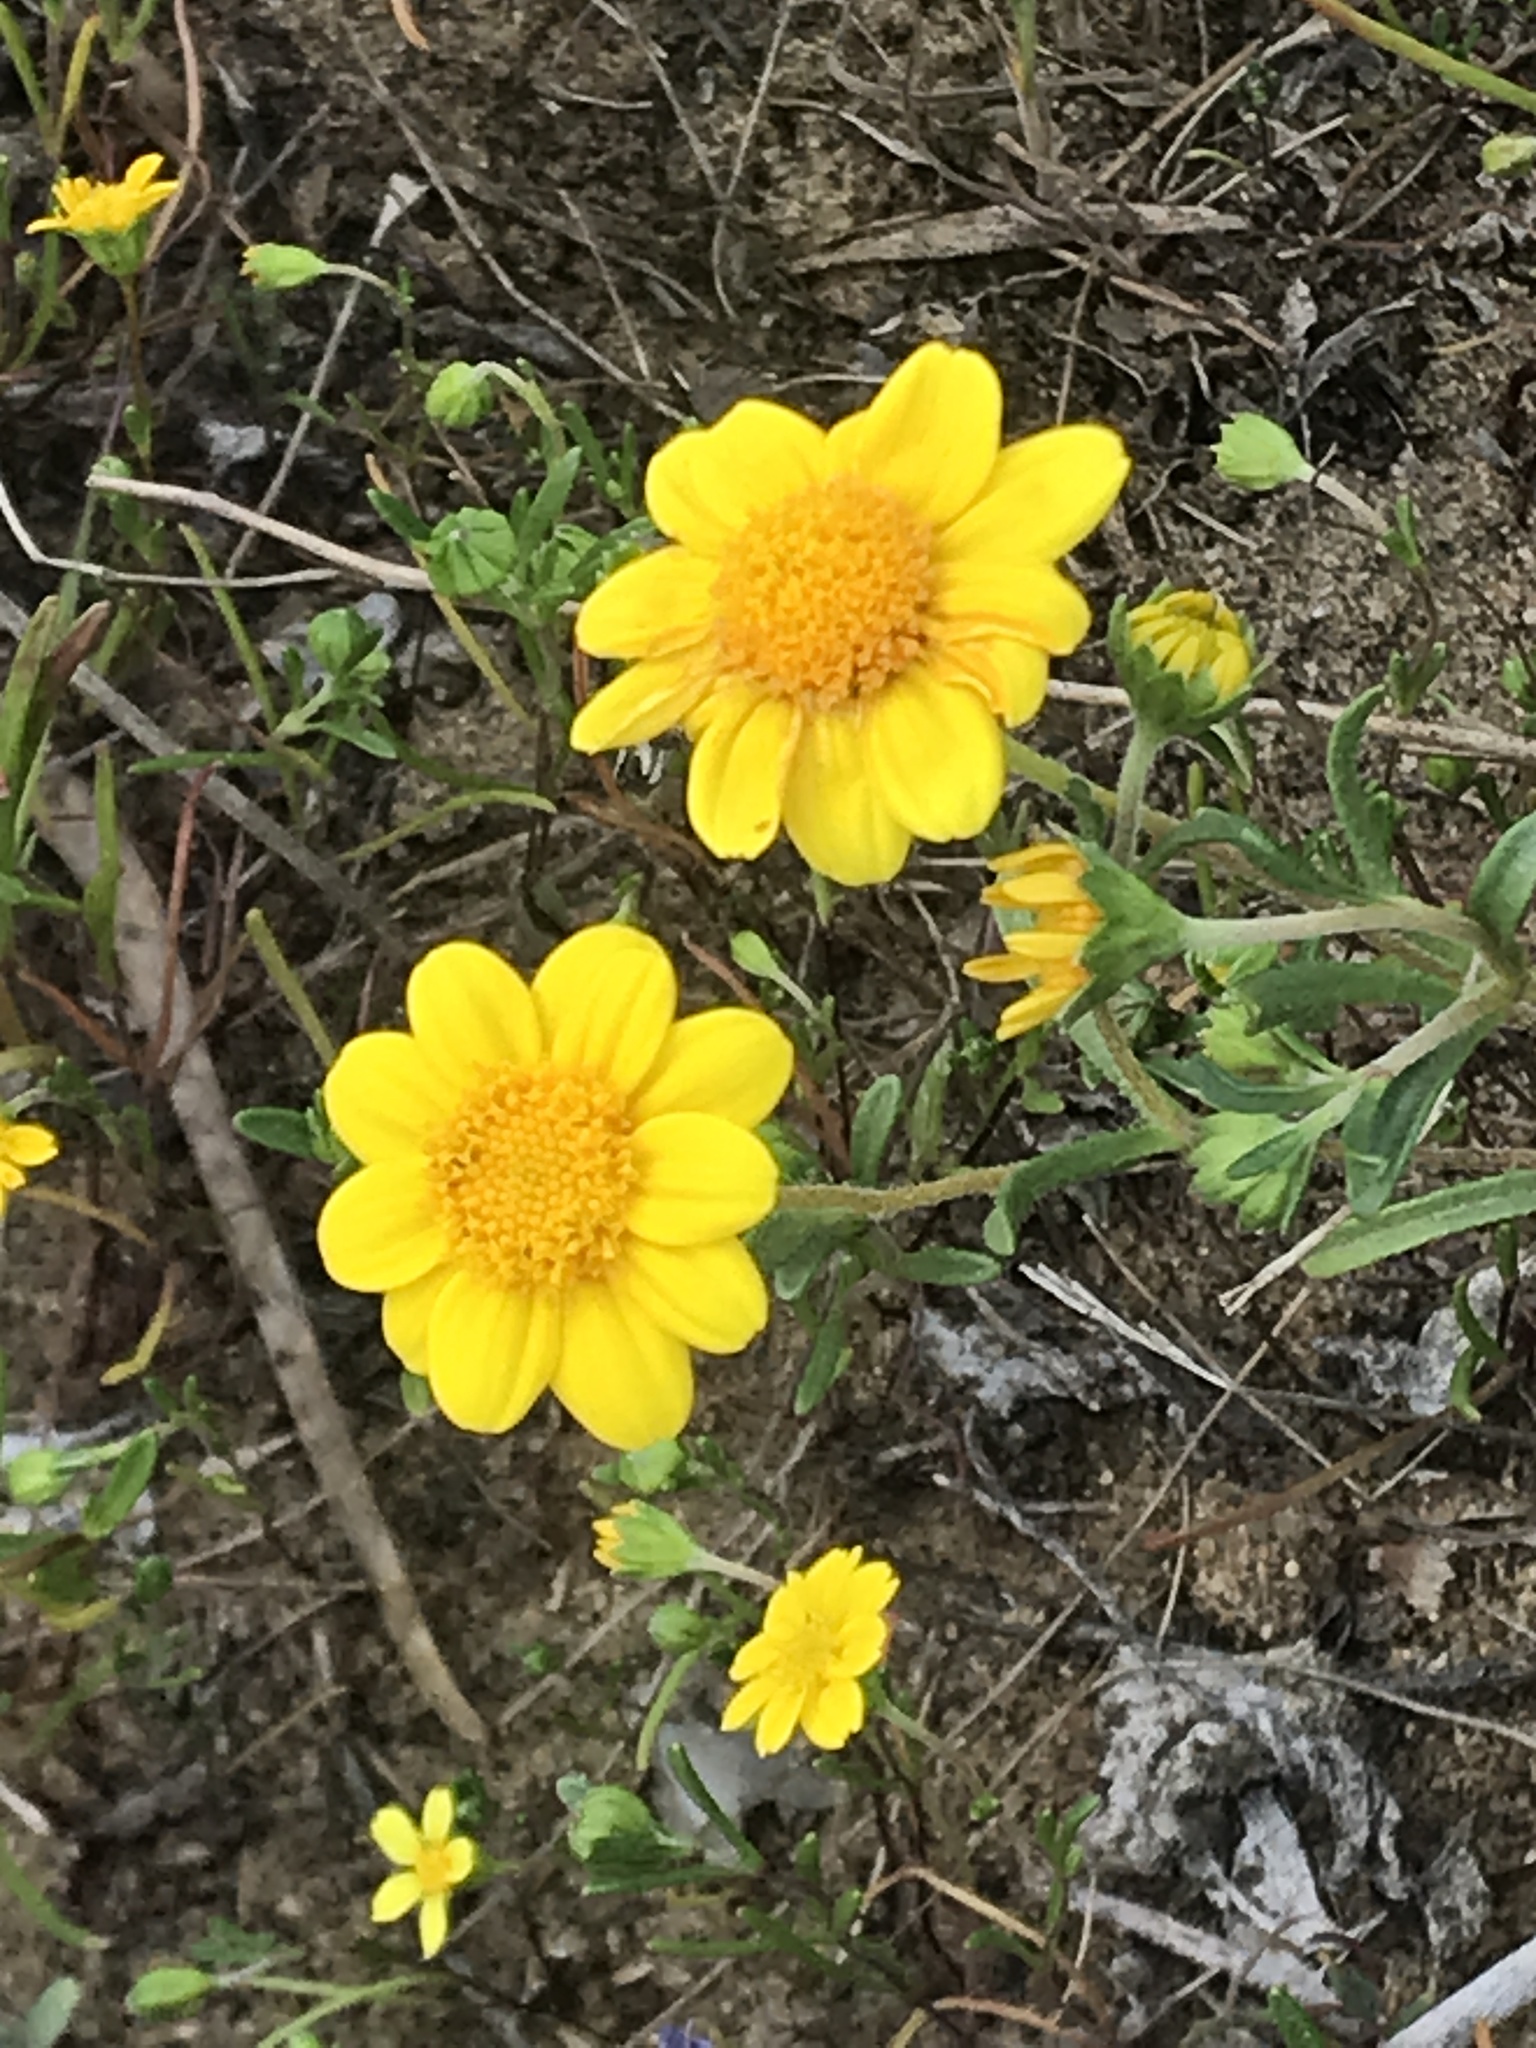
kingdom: Plantae
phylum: Tracheophyta
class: Magnoliopsida
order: Asterales
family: Asteraceae
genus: Lasthenia
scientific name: Lasthenia gracilis
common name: Common goldfields
